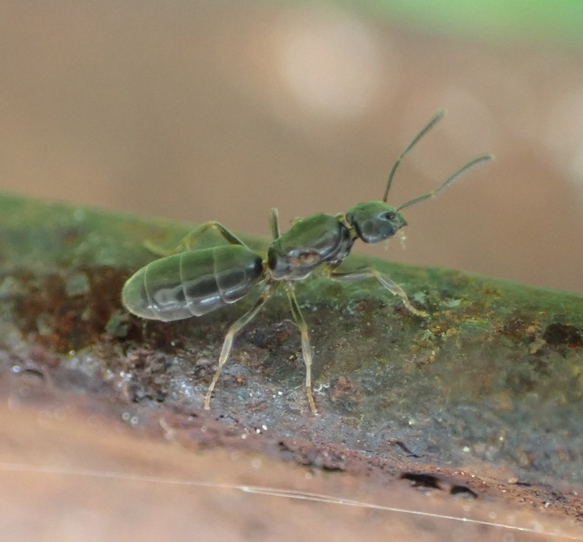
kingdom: Animalia
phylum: Arthropoda
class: Insecta
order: Hymenoptera
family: Formicidae
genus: Tapinoma
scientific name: Tapinoma sessile
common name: Odorous house ant
